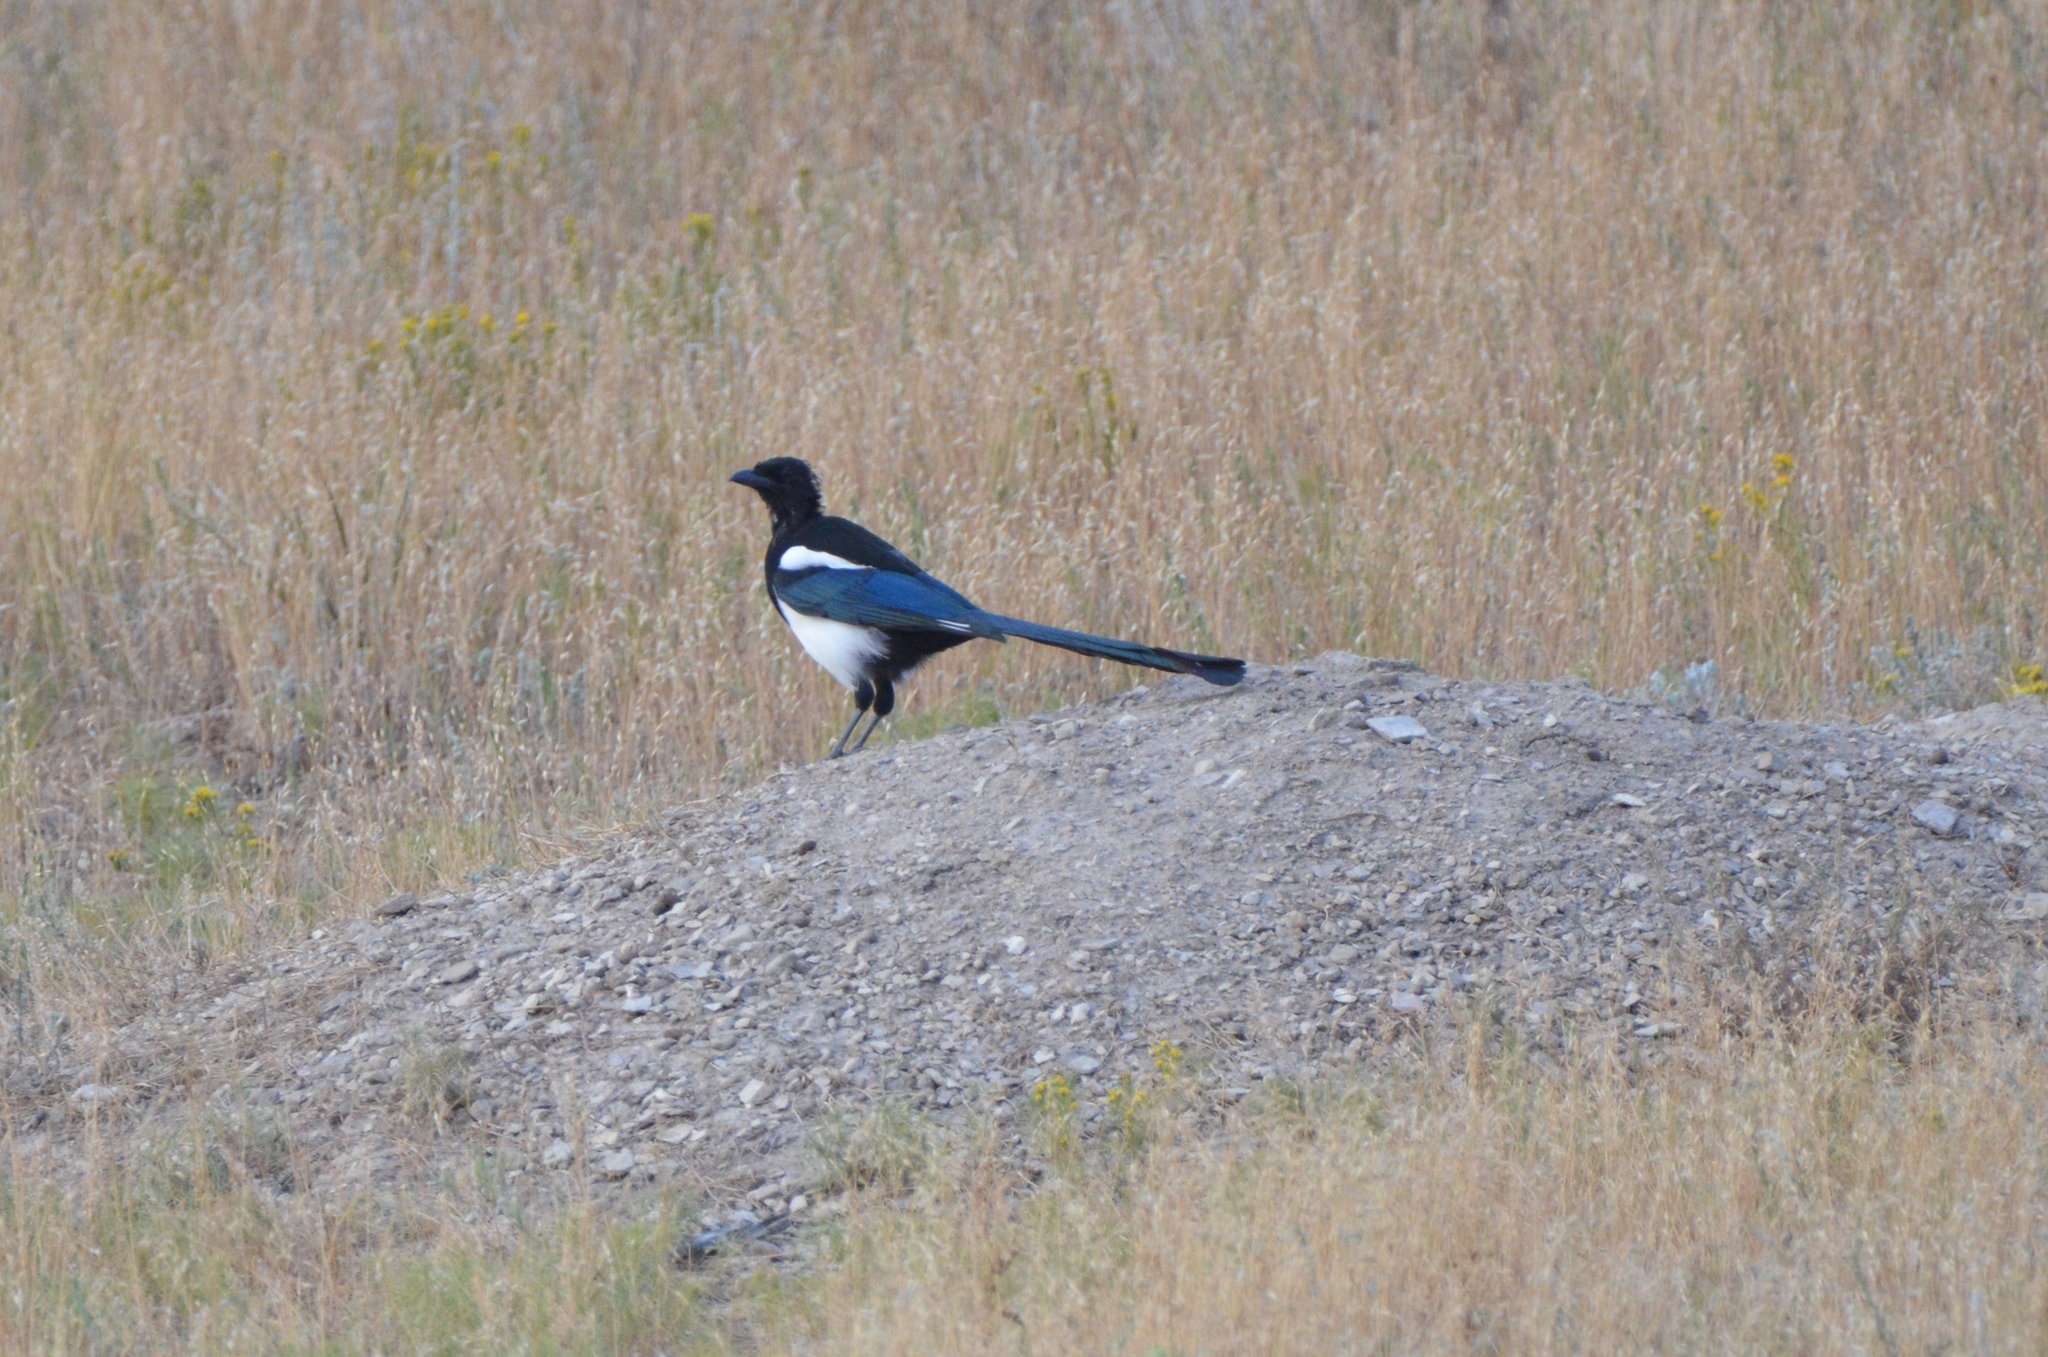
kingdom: Animalia
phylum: Chordata
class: Aves
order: Passeriformes
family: Corvidae
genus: Pica
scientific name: Pica hudsonia
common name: Black-billed magpie
